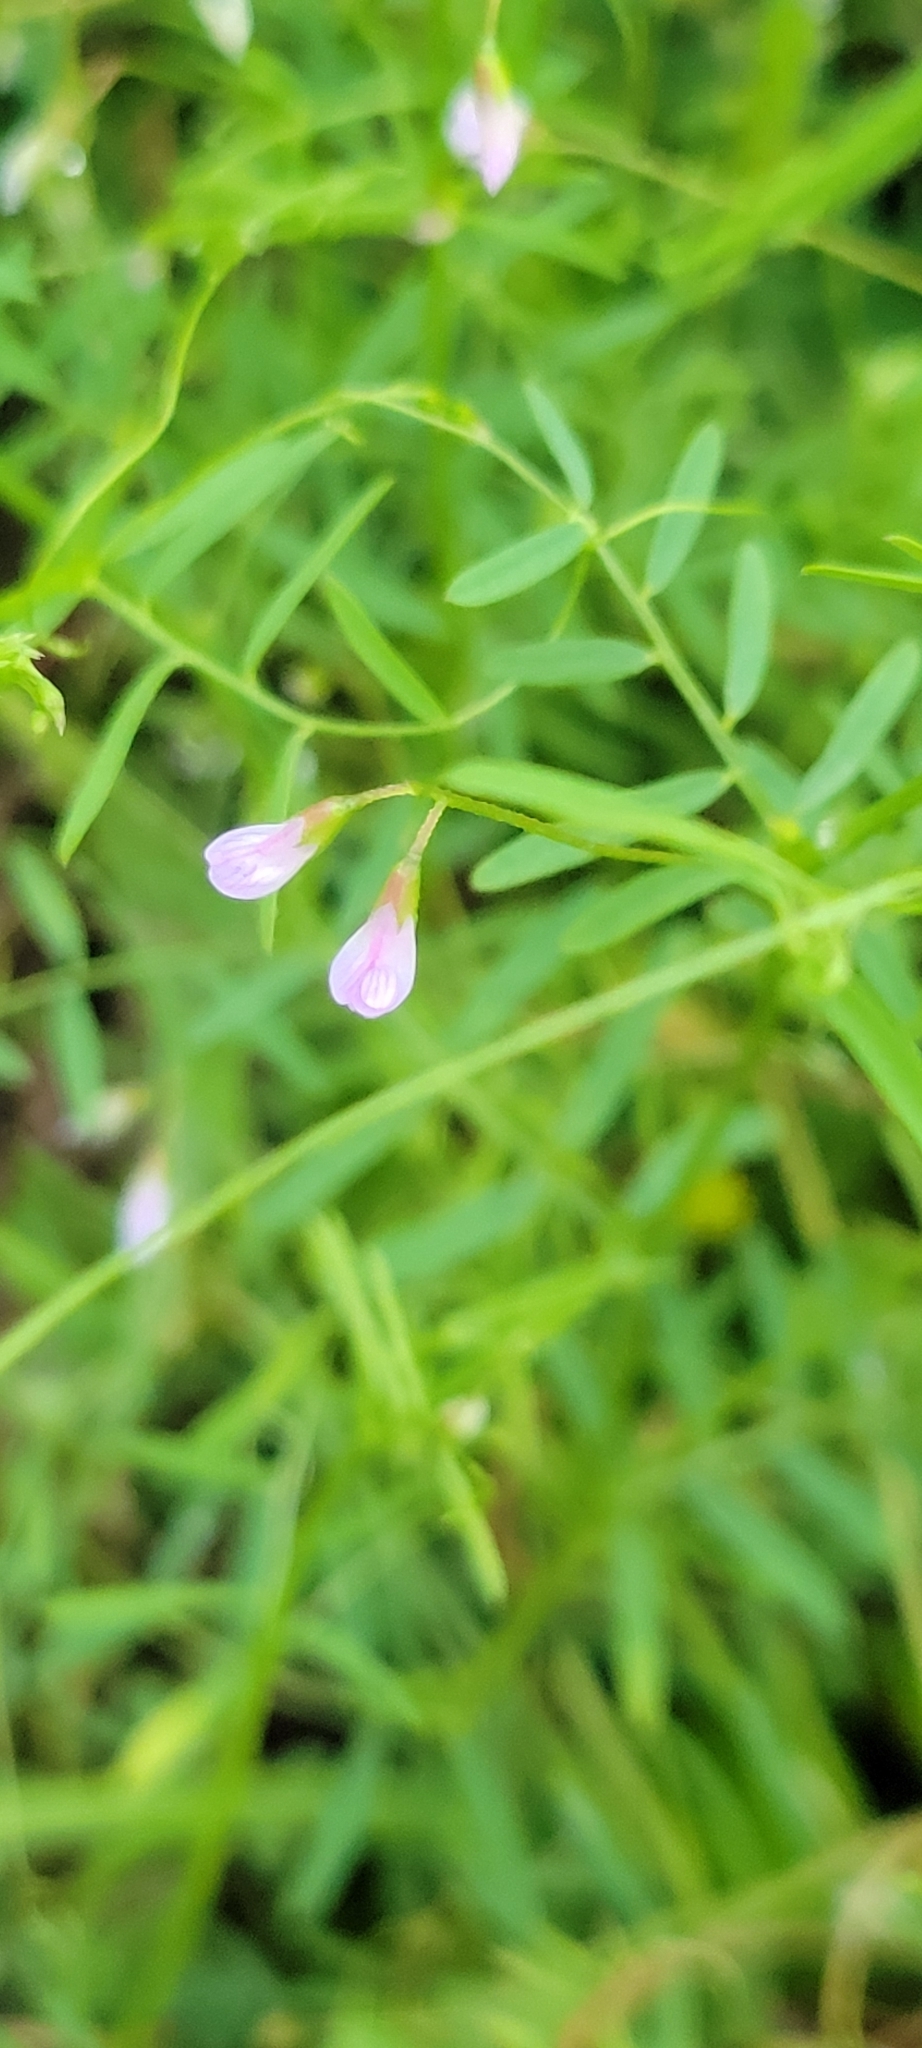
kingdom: Plantae
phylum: Tracheophyta
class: Magnoliopsida
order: Fabales
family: Fabaceae
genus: Vicia
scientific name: Vicia tetrasperma
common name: Smooth tare
